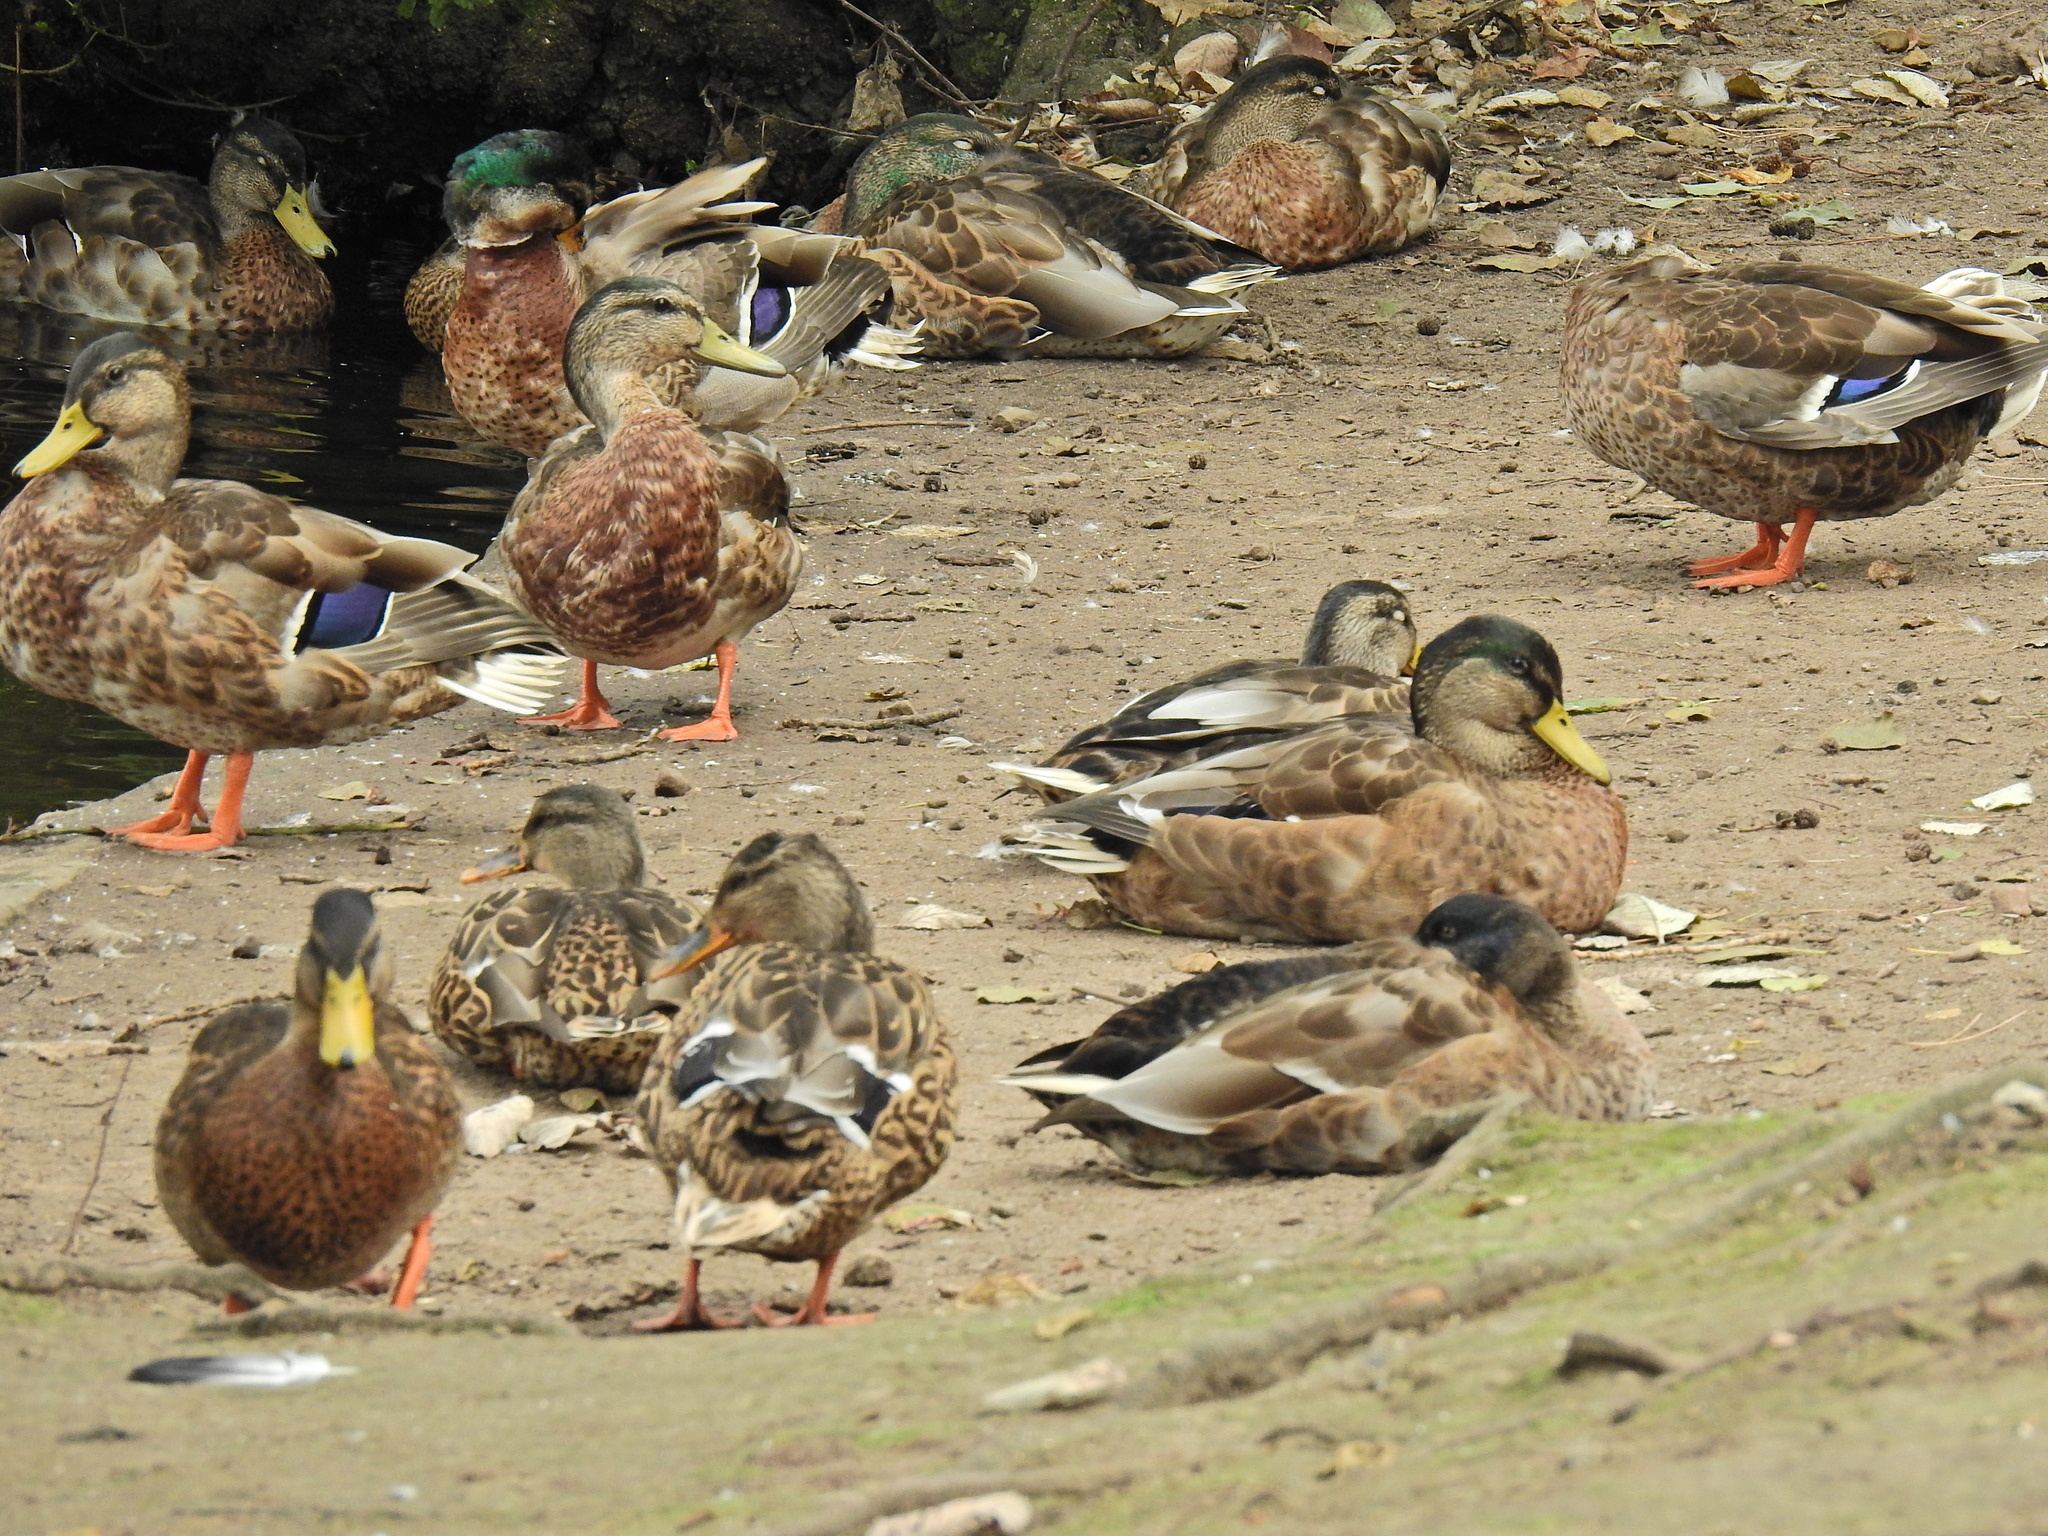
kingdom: Animalia
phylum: Chordata
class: Aves
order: Anseriformes
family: Anatidae
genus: Anas
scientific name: Anas platyrhynchos
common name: Mallard
